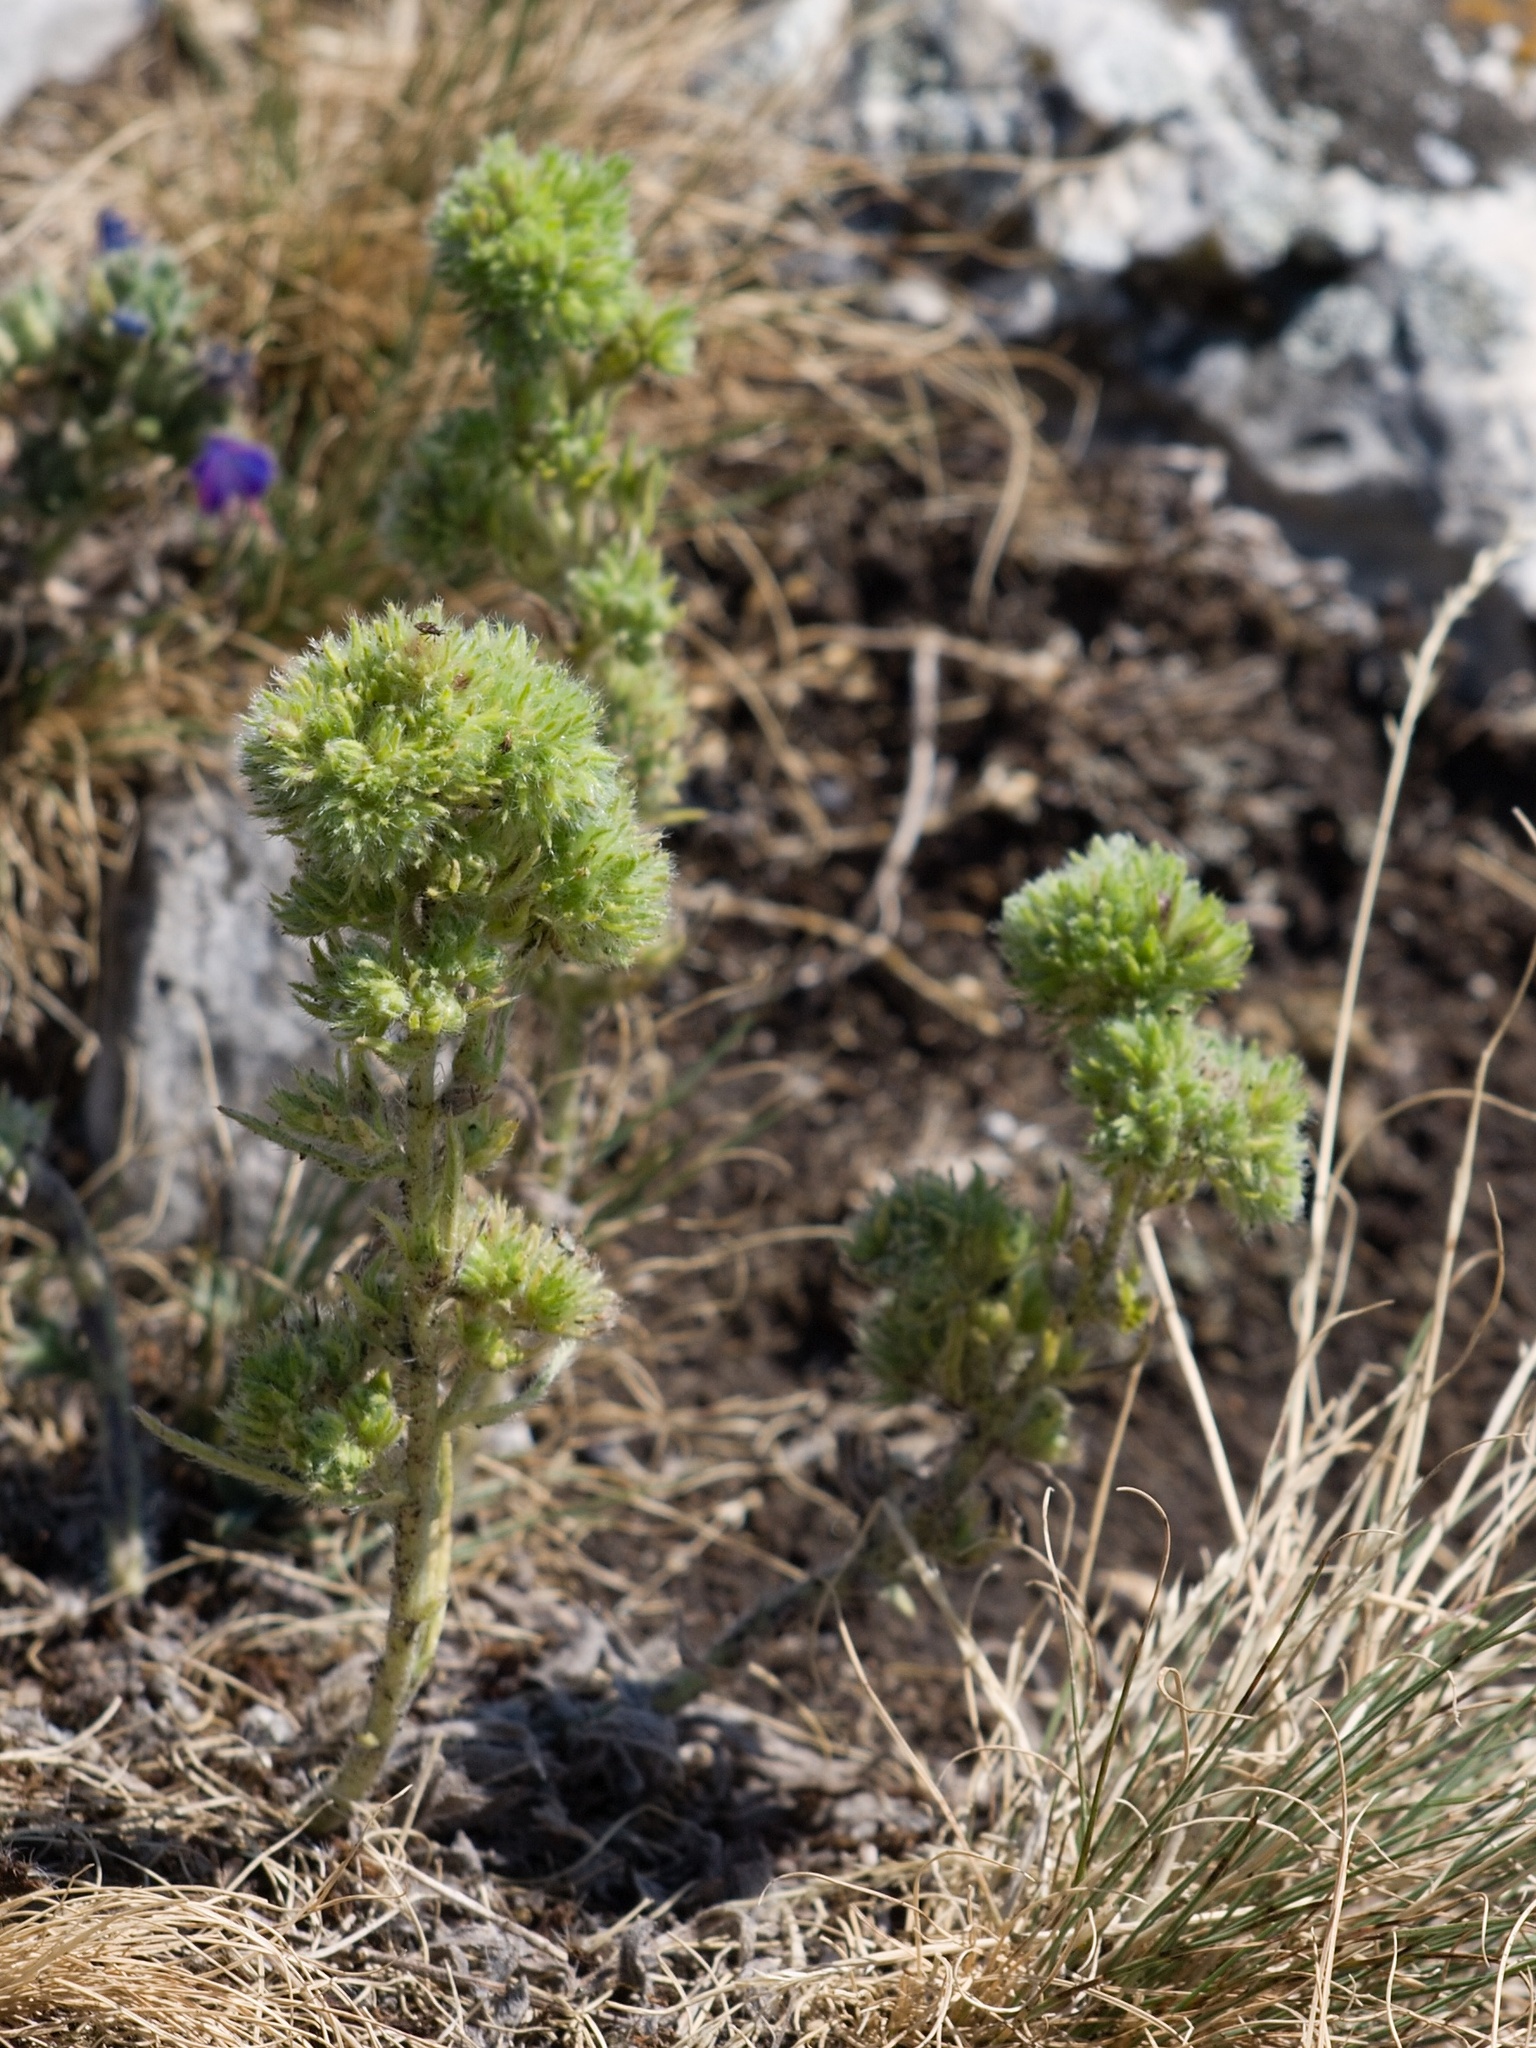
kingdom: Animalia
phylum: Arthropoda
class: Arachnida
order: Trombidiformes
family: Eriophyidae
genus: Aceria
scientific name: Aceria echii
